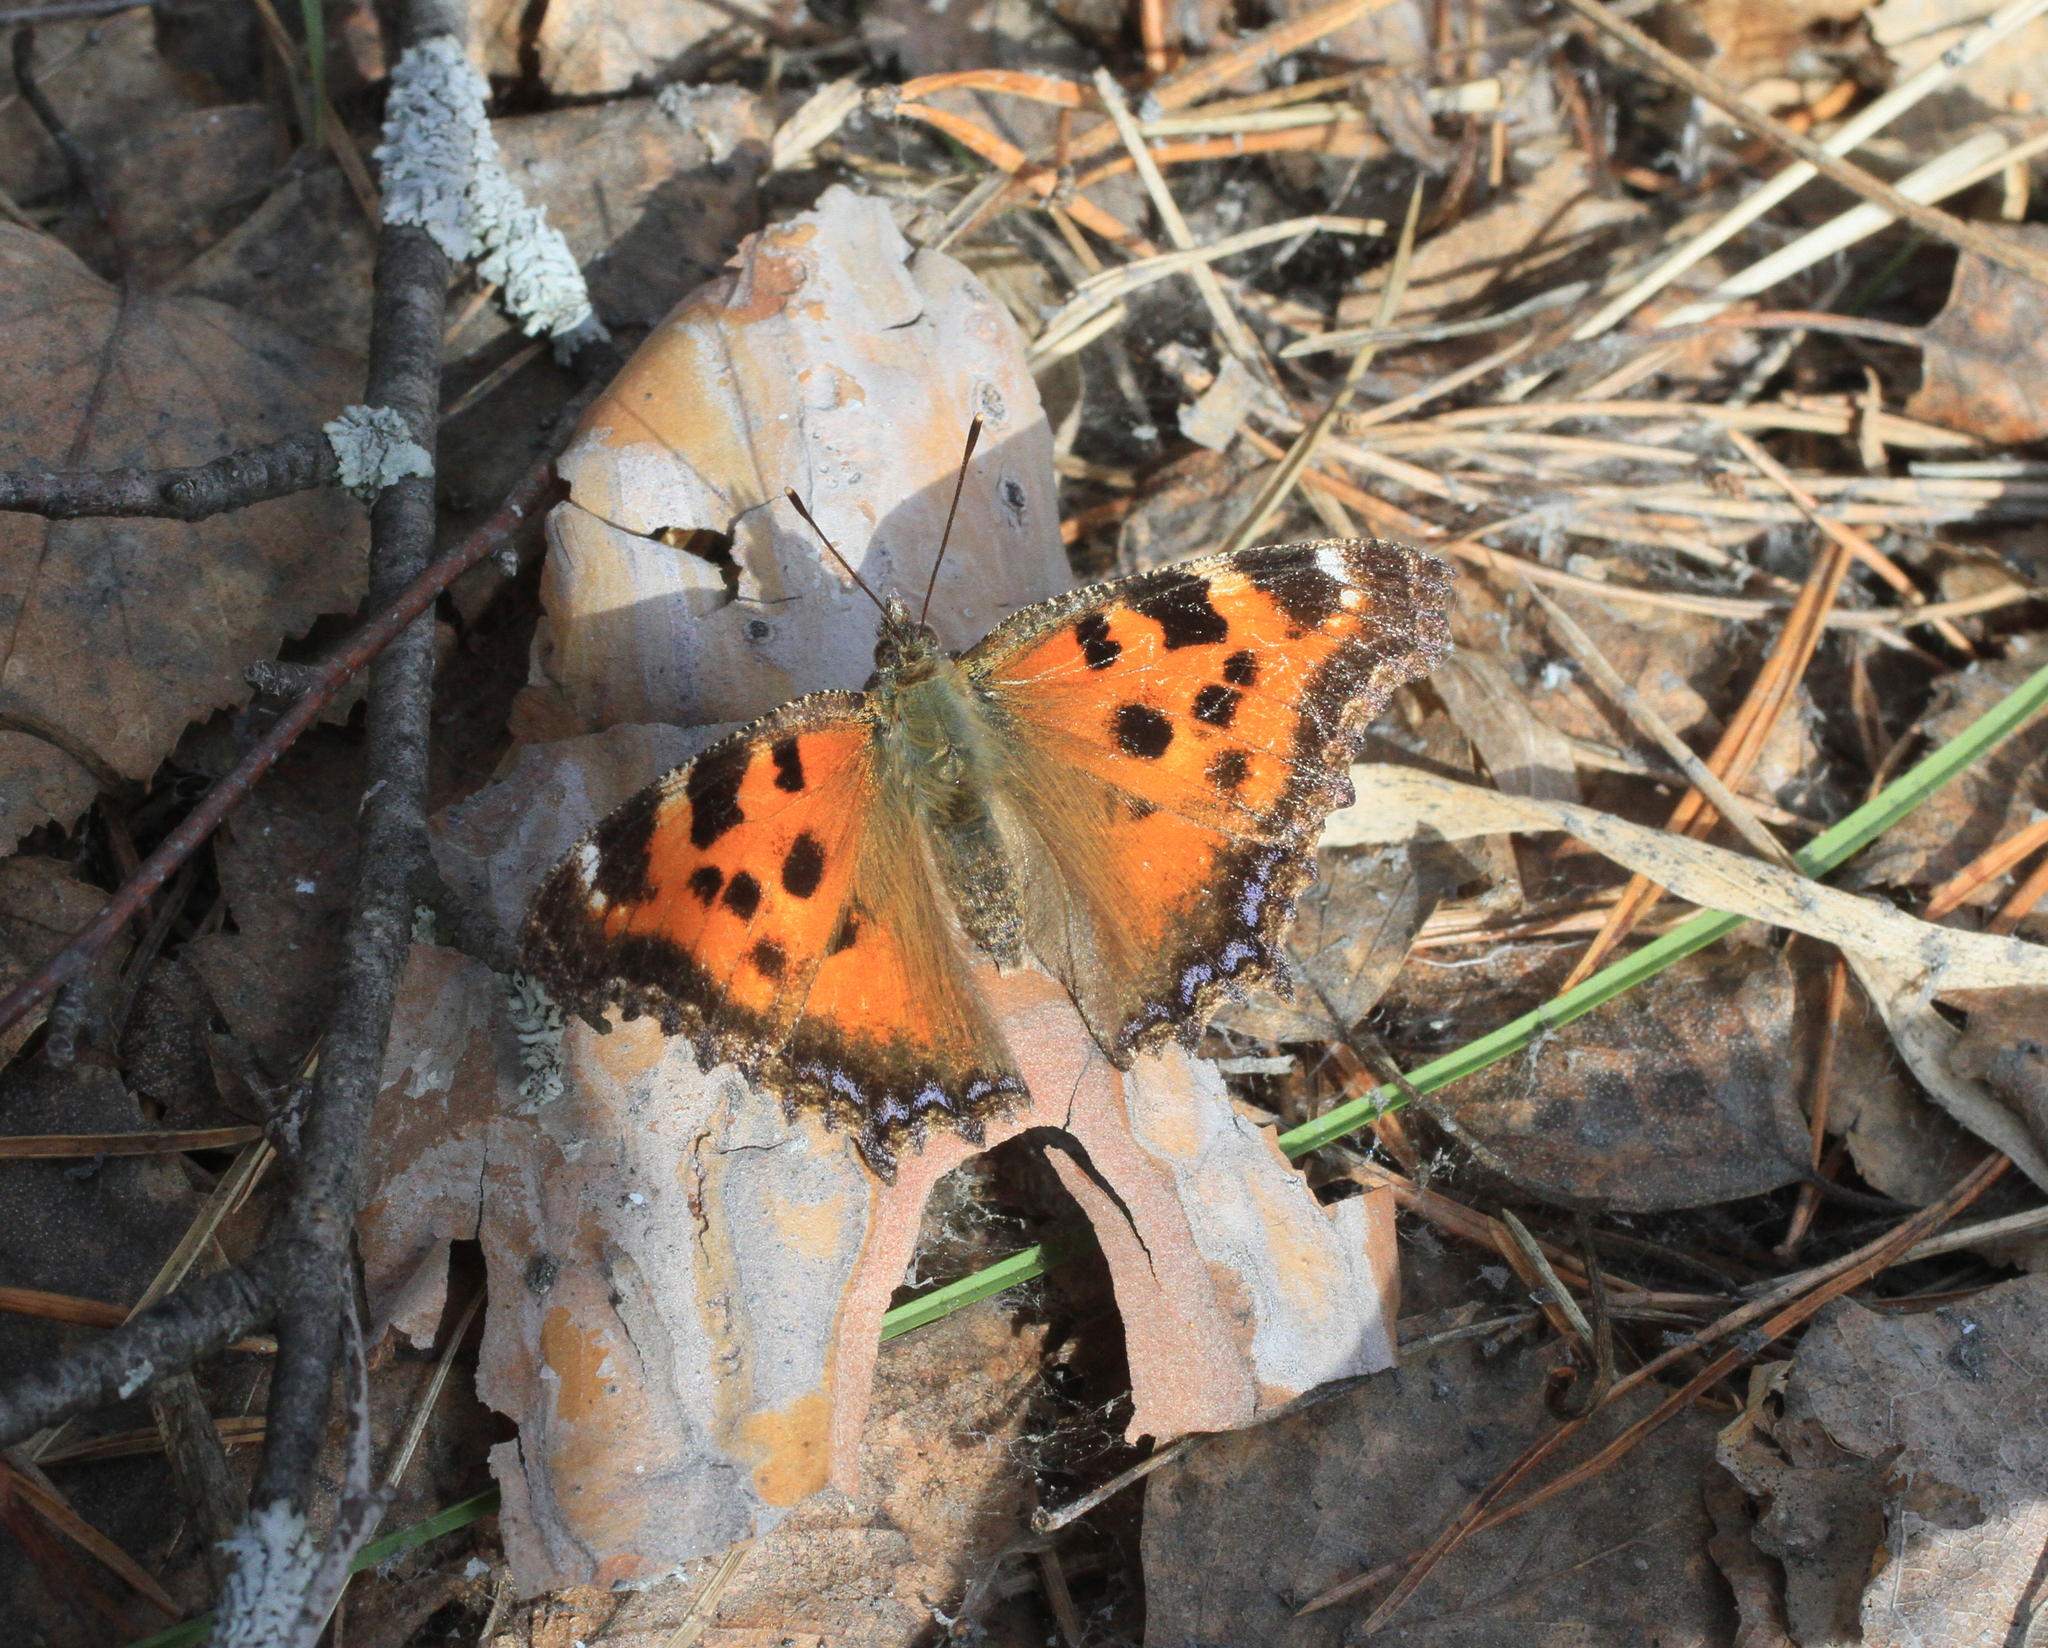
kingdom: Animalia
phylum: Arthropoda
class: Insecta
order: Lepidoptera
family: Nymphalidae
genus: Nymphalis
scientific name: Nymphalis xanthomelas
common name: Scarce tortoiseshell
